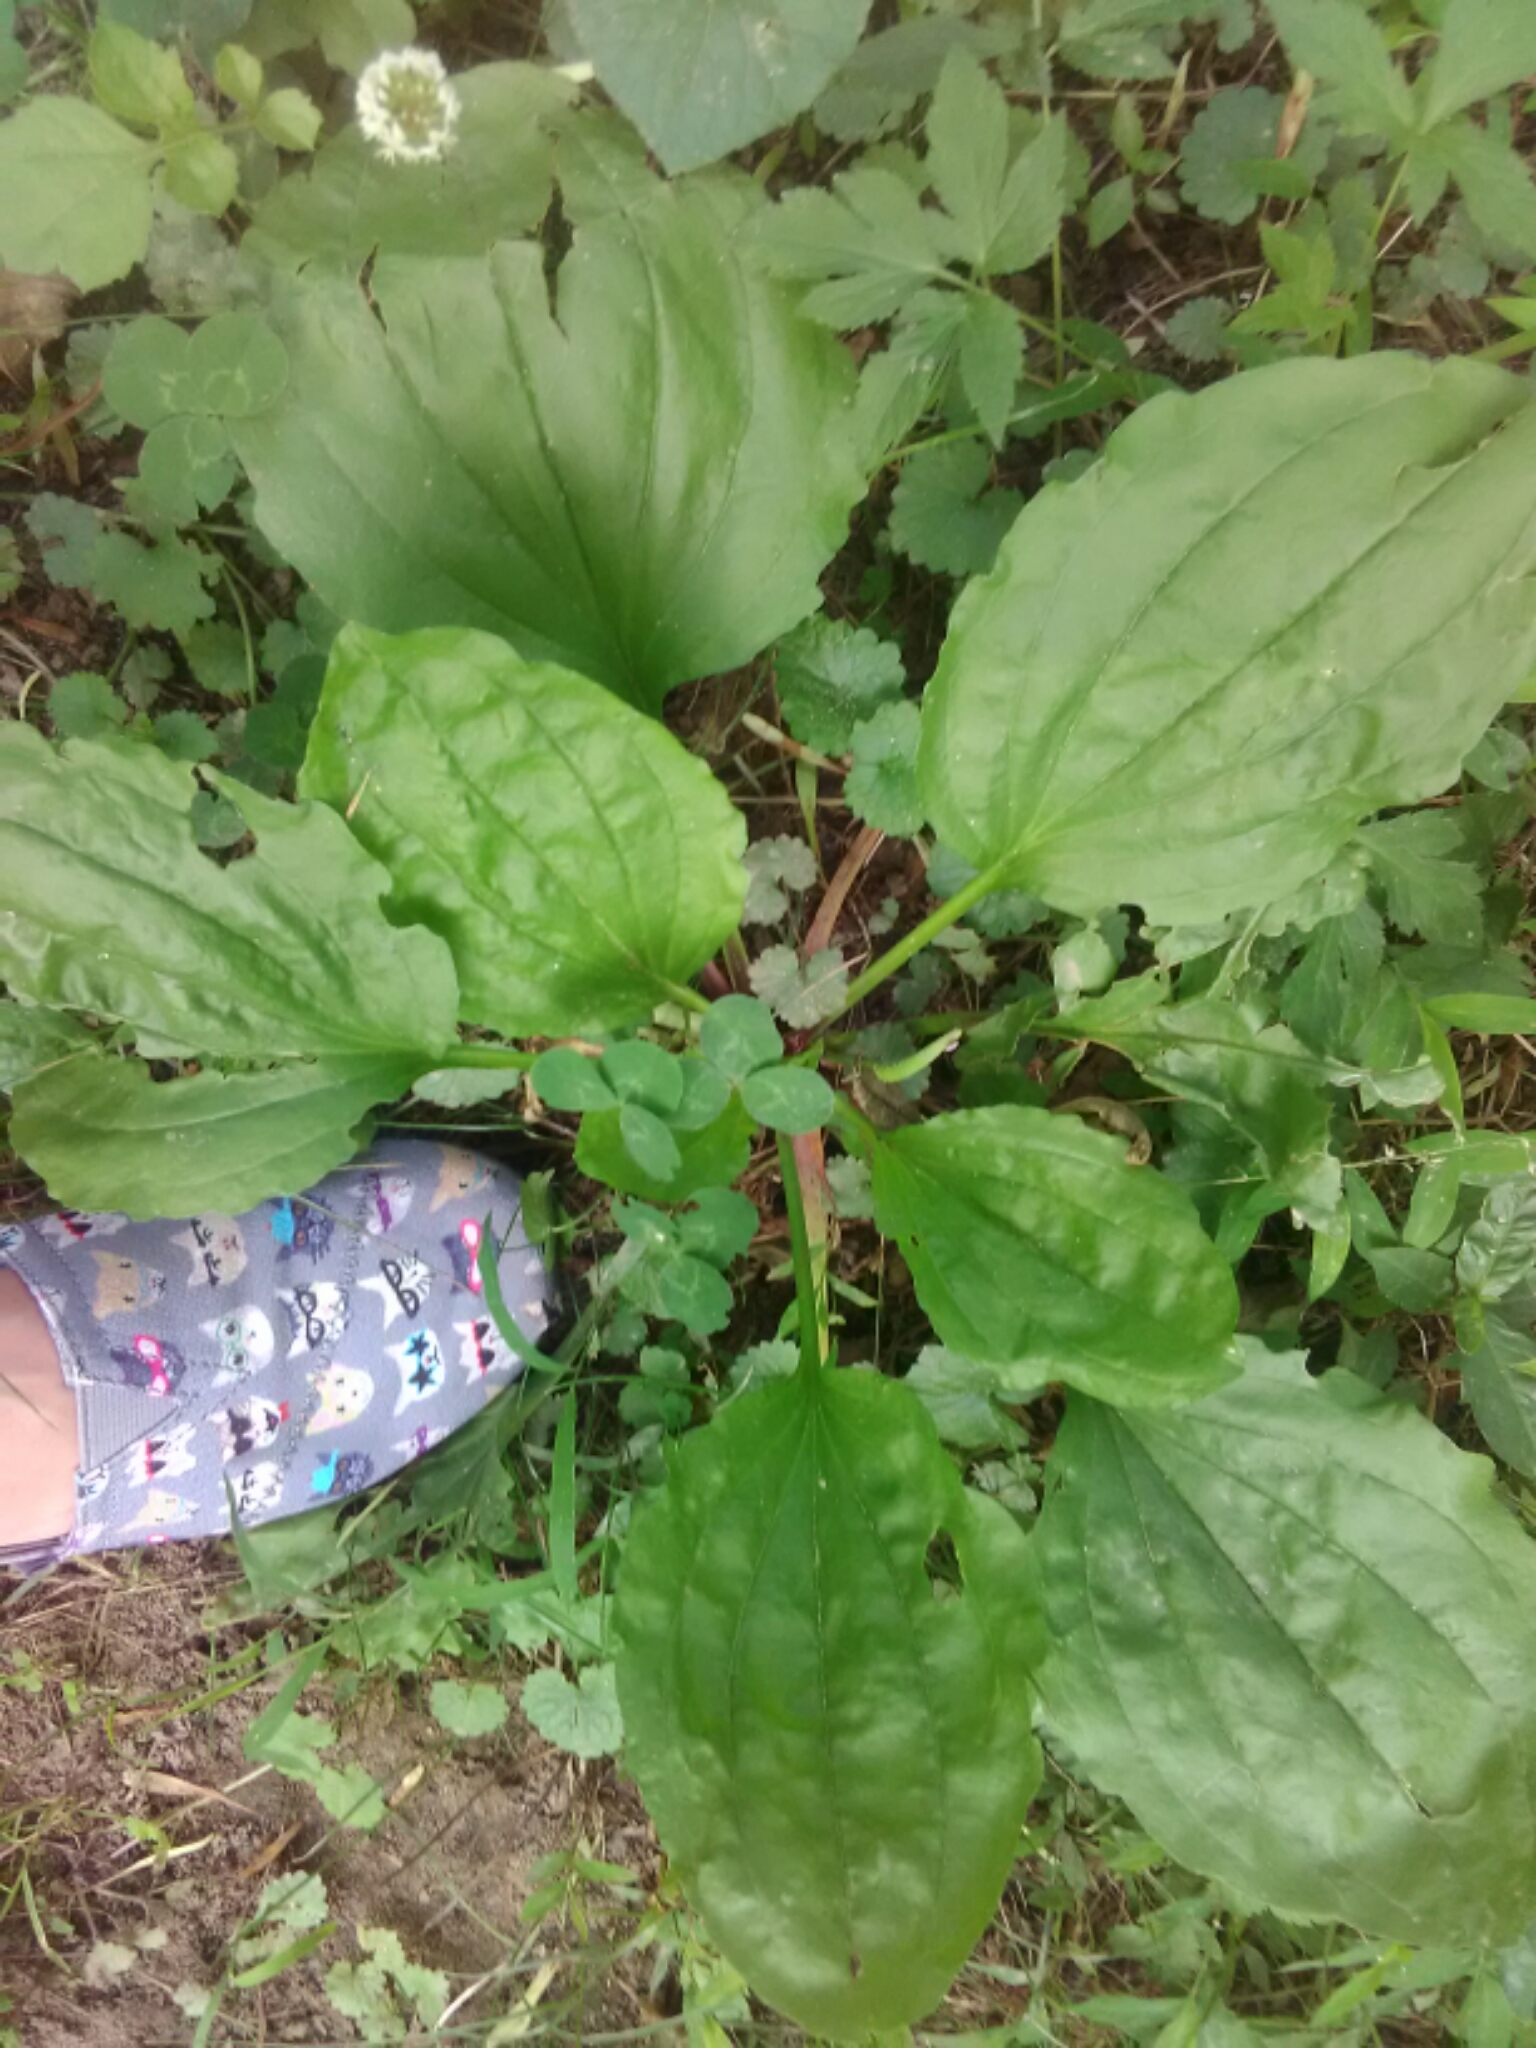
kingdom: Plantae
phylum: Tracheophyta
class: Magnoliopsida
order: Lamiales
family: Plantaginaceae
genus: Plantago
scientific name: Plantago major
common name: Common plantain
